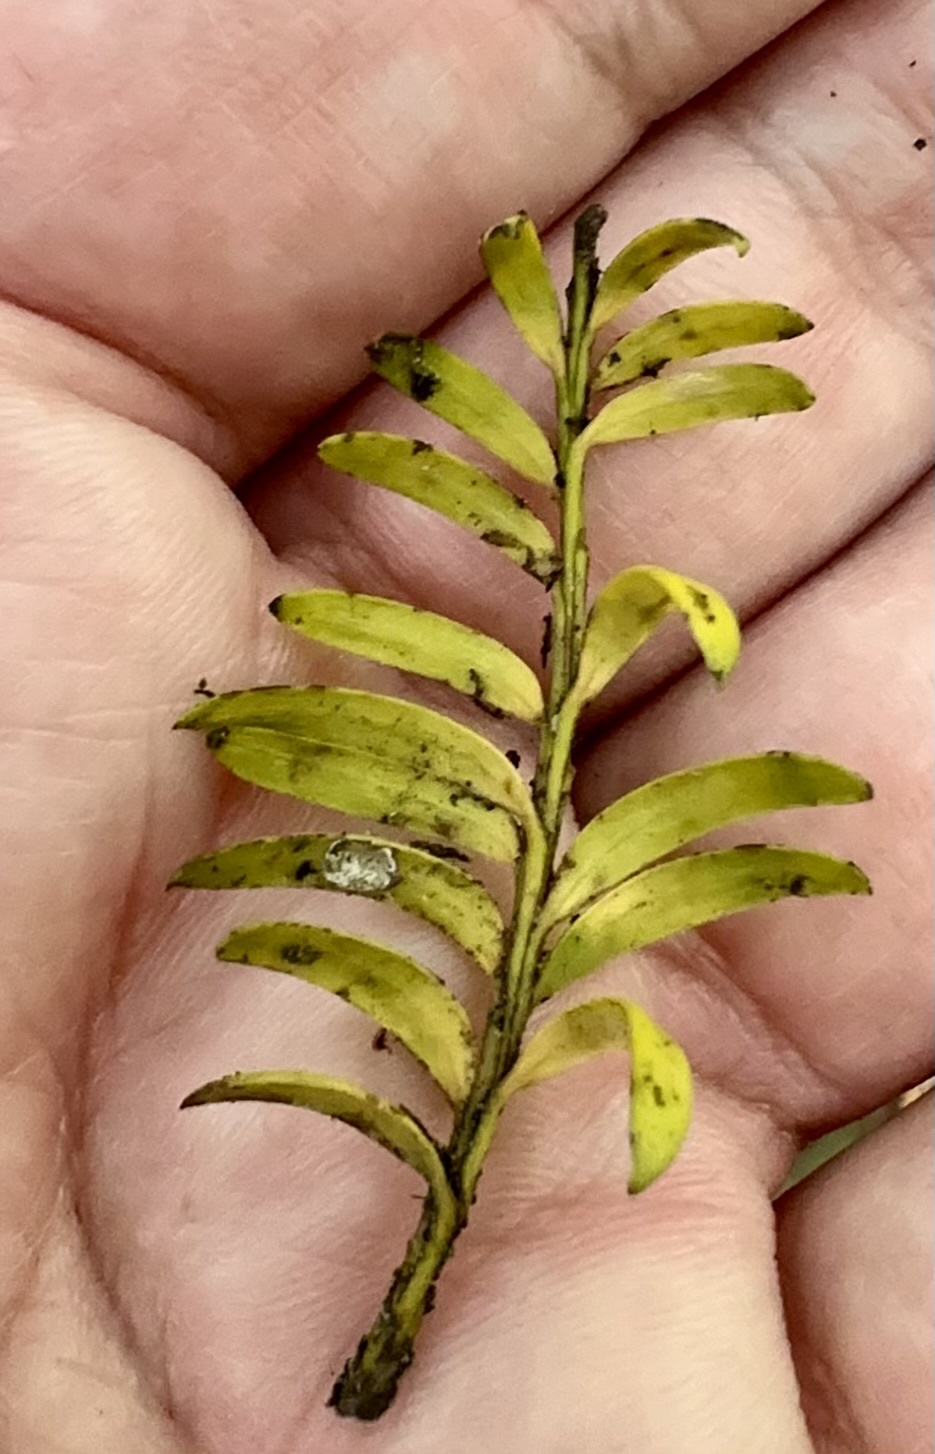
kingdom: Plantae
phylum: Tracheophyta
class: Pinopsida
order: Pinales
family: Podocarpaceae
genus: Prumnopitys
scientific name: Prumnopitys taxifolia
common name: Matai
